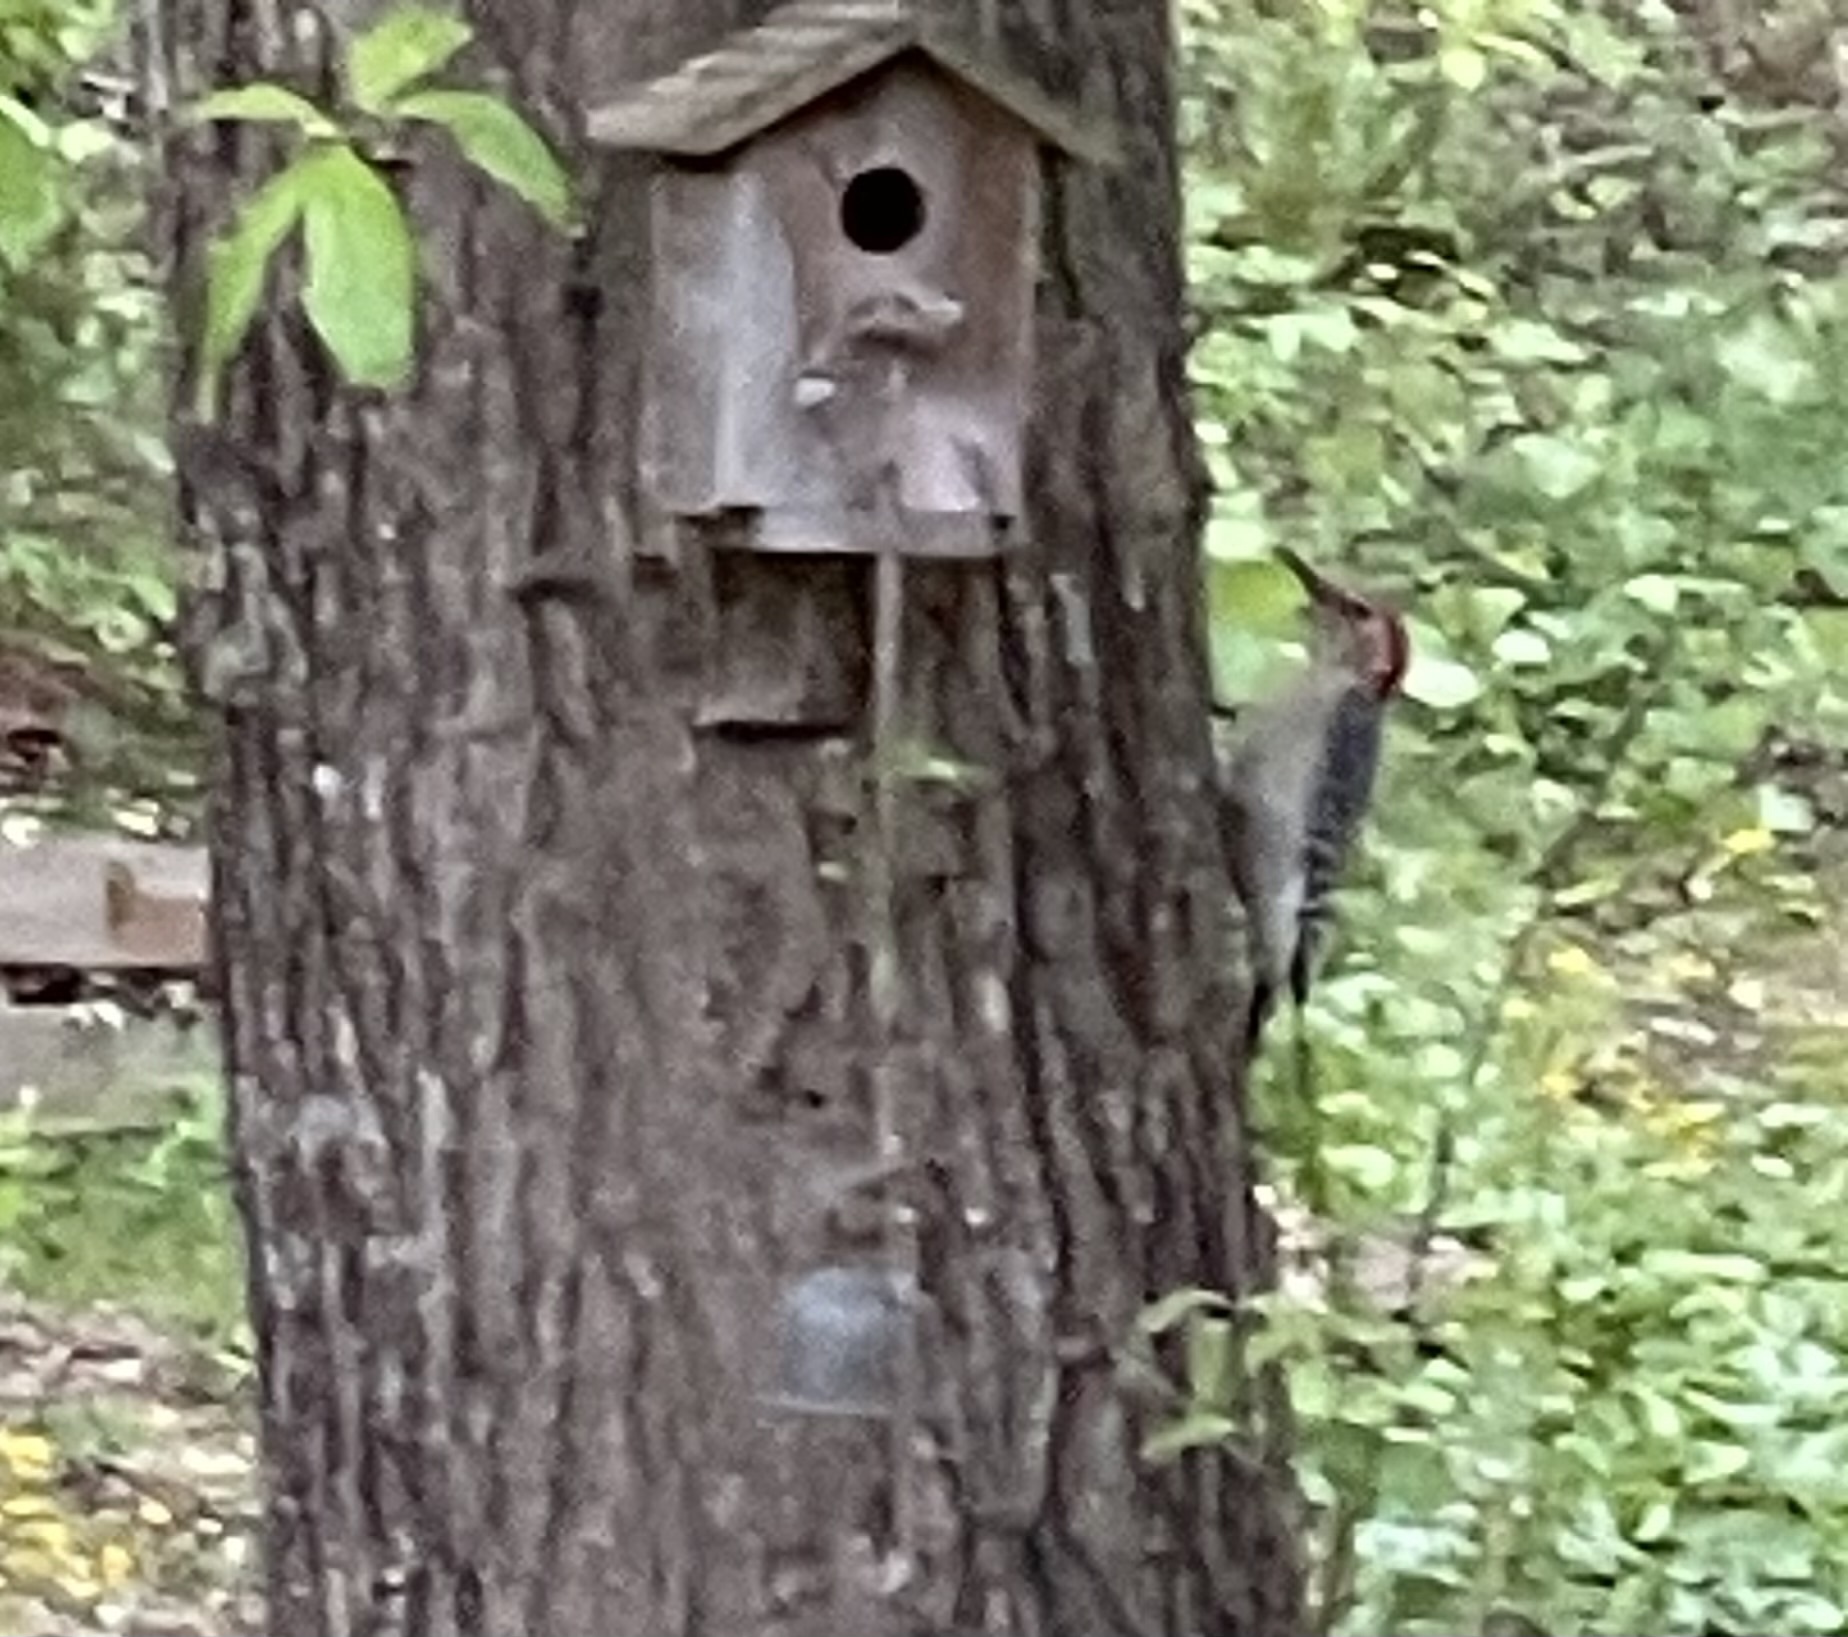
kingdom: Animalia
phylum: Chordata
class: Aves
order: Piciformes
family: Picidae
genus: Melanerpes
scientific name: Melanerpes carolinus
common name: Red-bellied woodpecker
